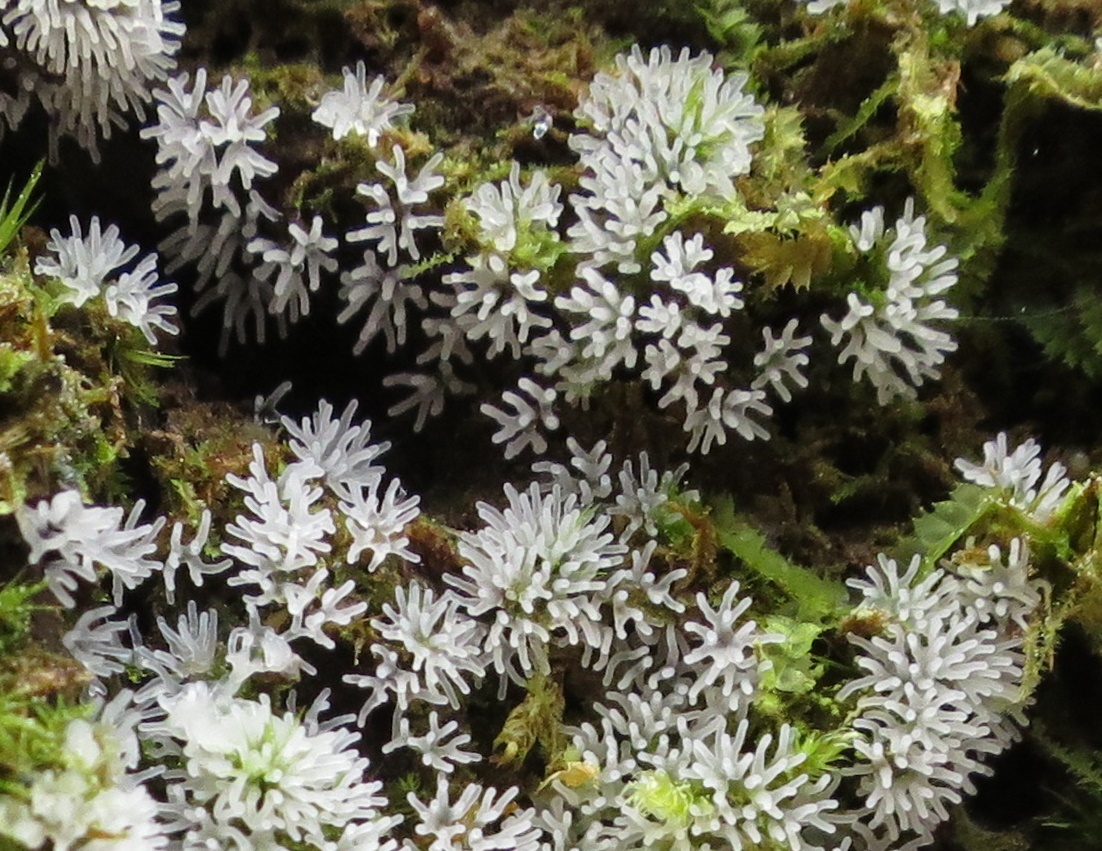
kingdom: Protozoa
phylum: Mycetozoa
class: Protosteliomycetes
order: Ceratiomyxales
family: Ceratiomyxaceae
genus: Ceratiomyxa
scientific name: Ceratiomyxa fruticulosa
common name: Honeycomb coral slime mold
